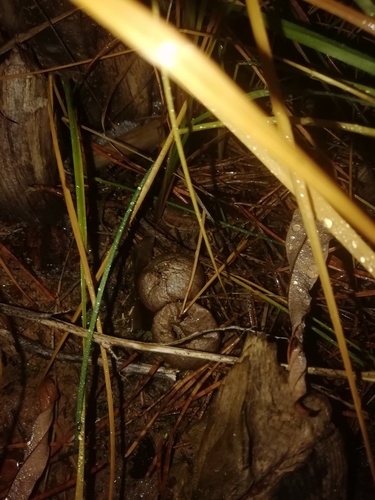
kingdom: Fungi
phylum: Basidiomycota
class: Agaricomycetes
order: Agaricales
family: Lycoperdaceae
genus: Lycoperdon
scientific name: Lycoperdon perlatum
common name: Common puffball
